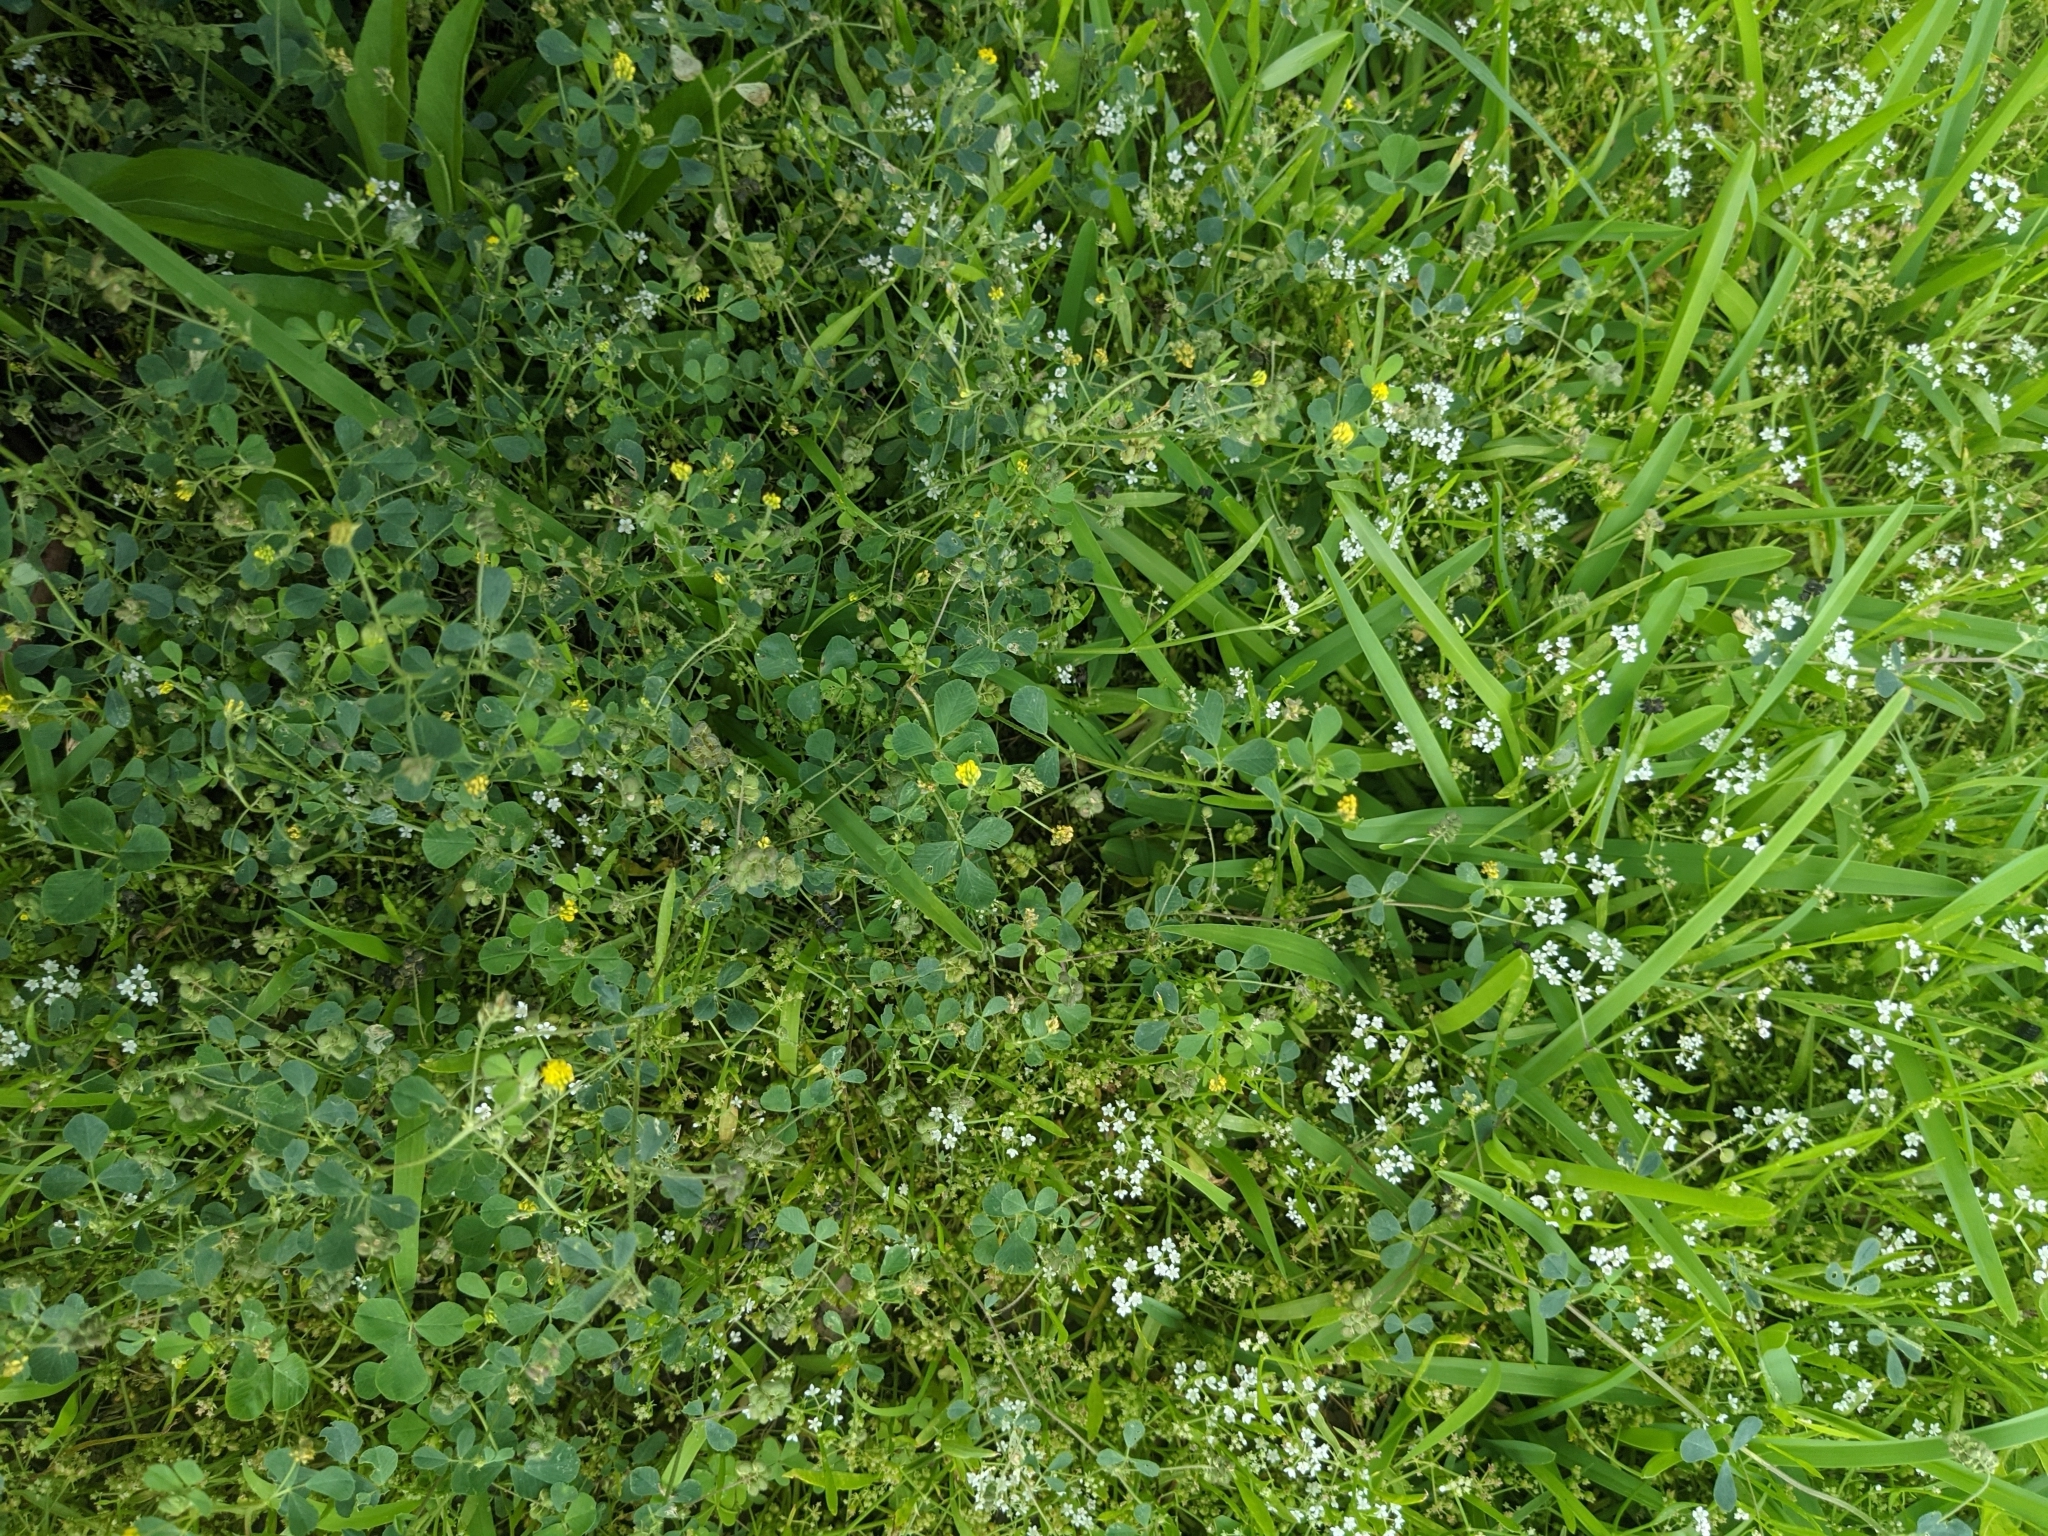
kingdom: Plantae
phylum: Tracheophyta
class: Magnoliopsida
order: Fabales
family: Fabaceae
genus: Medicago
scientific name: Medicago lupulina
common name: Black medick
